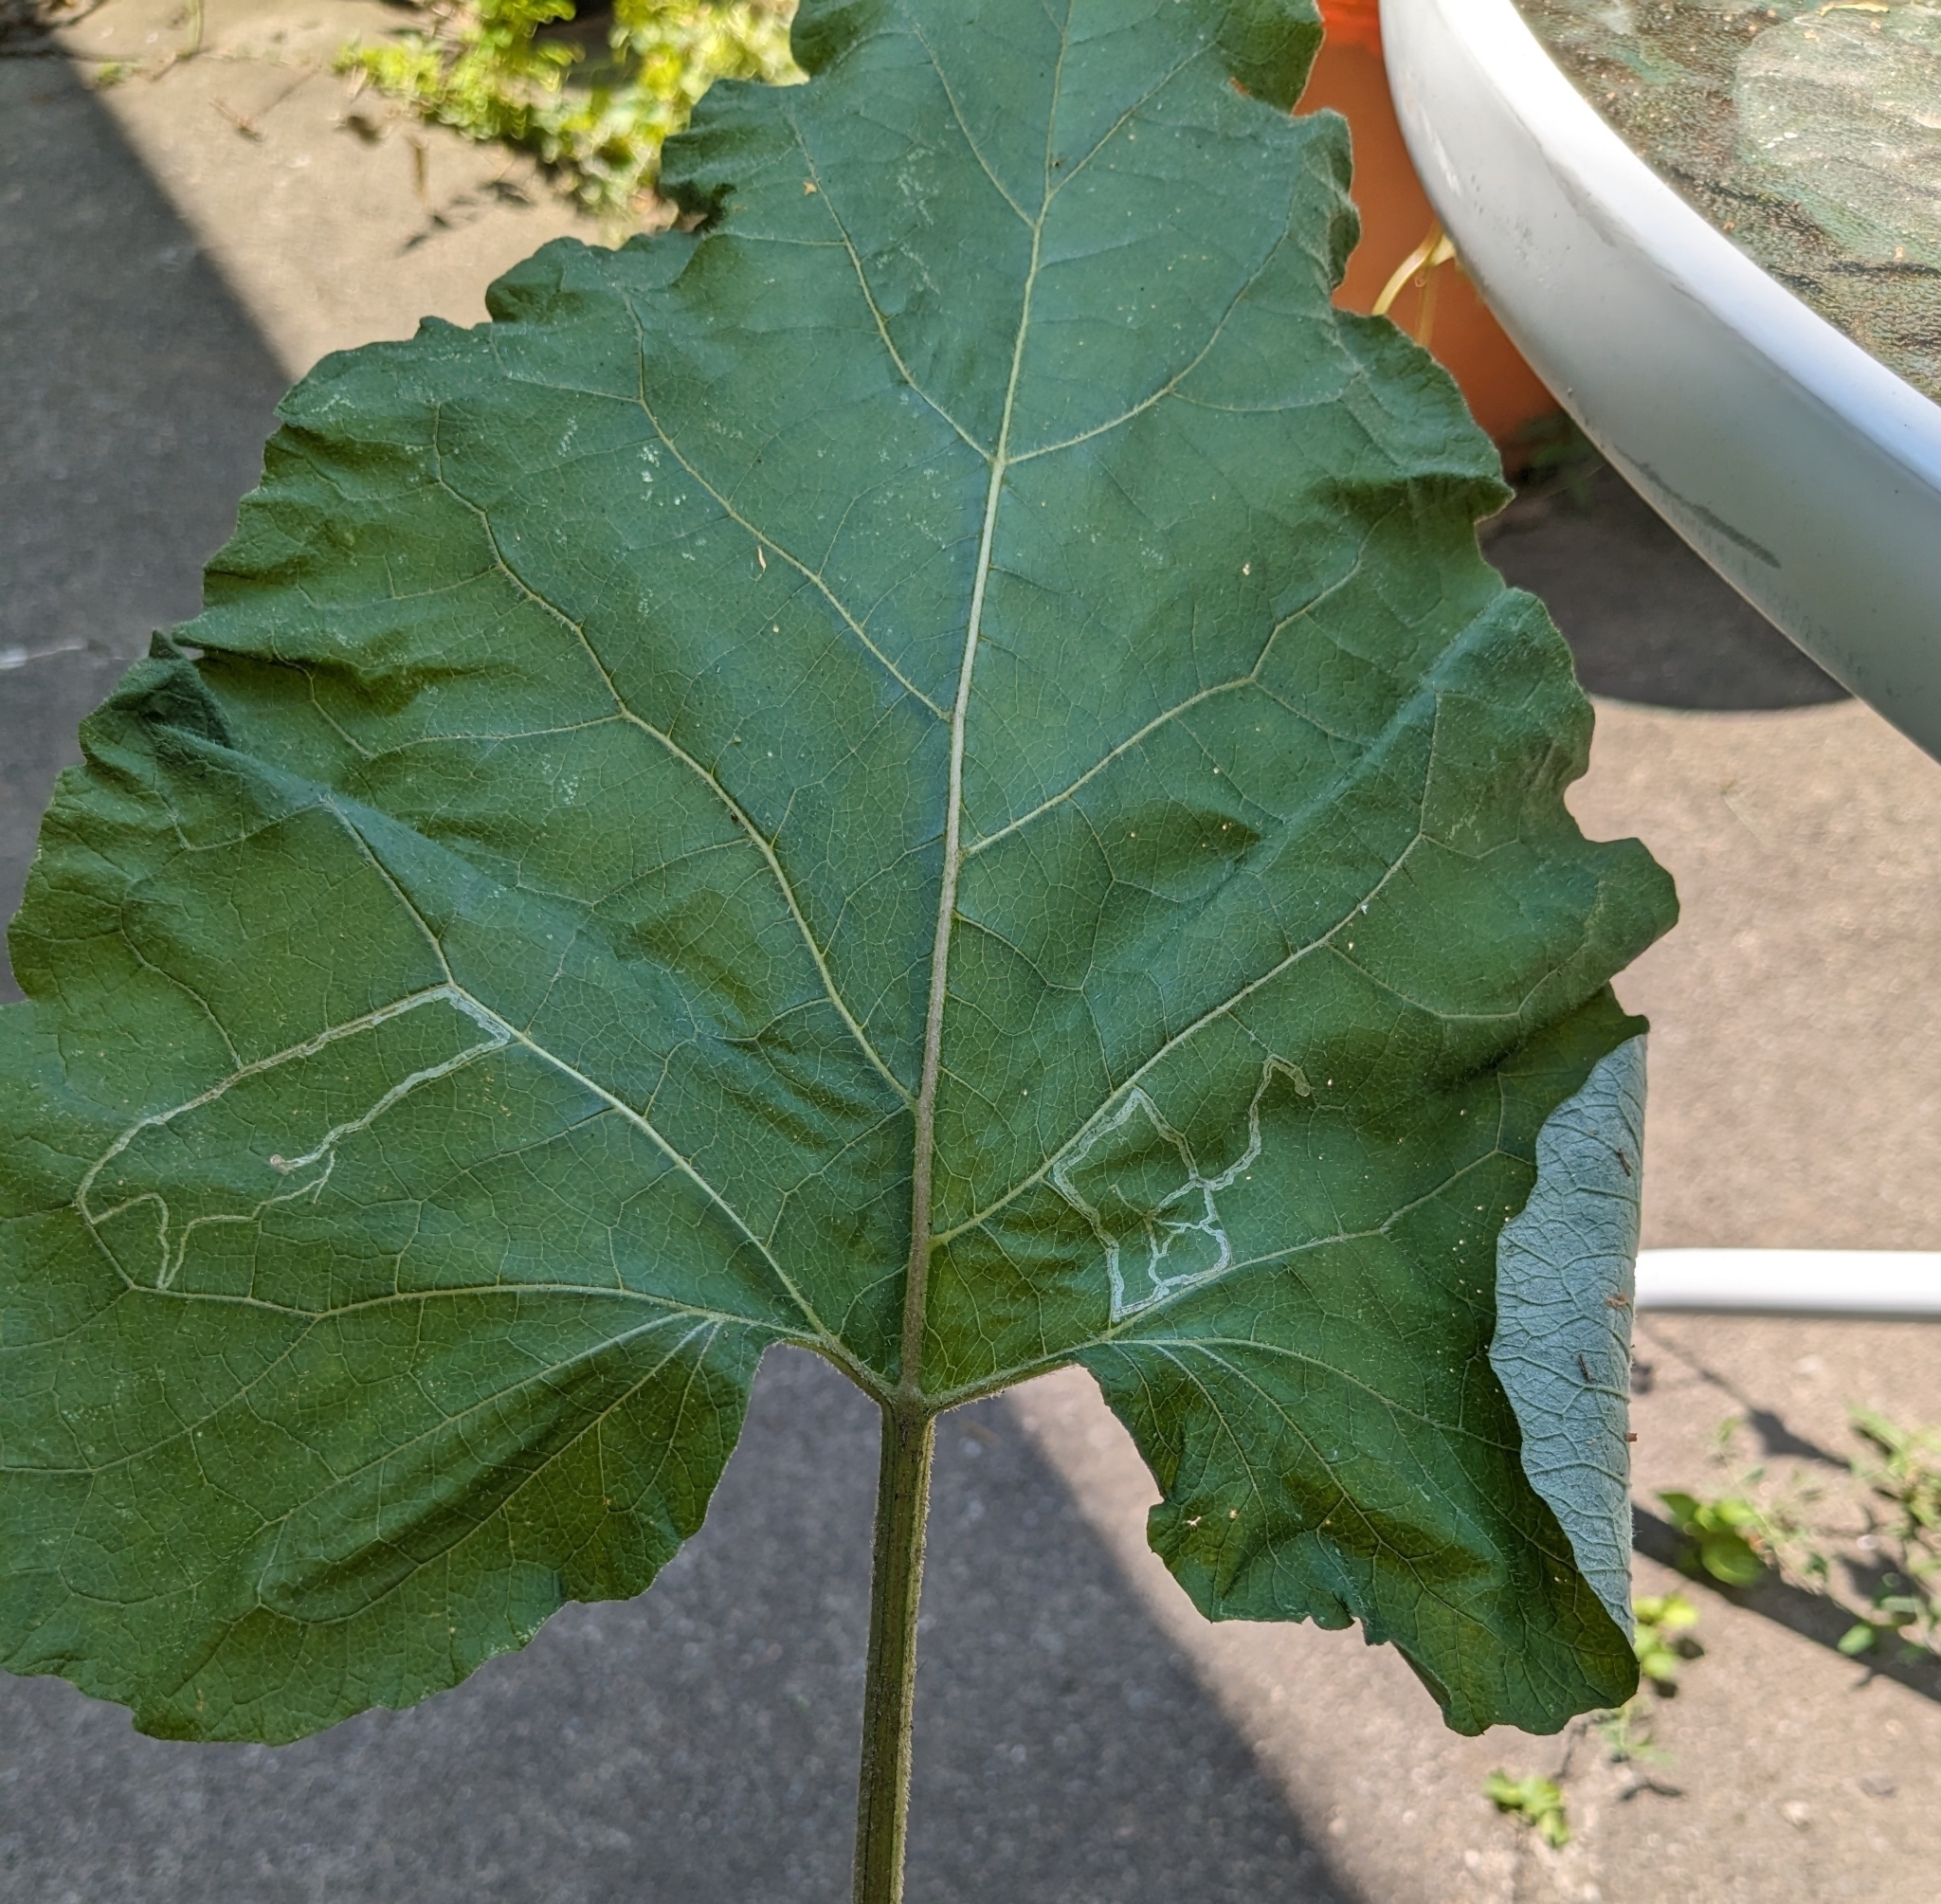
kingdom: Animalia
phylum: Arthropoda
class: Insecta
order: Diptera
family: Agromyzidae
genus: Liriomyza
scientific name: Liriomyza arctii
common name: Burdock leafminer
